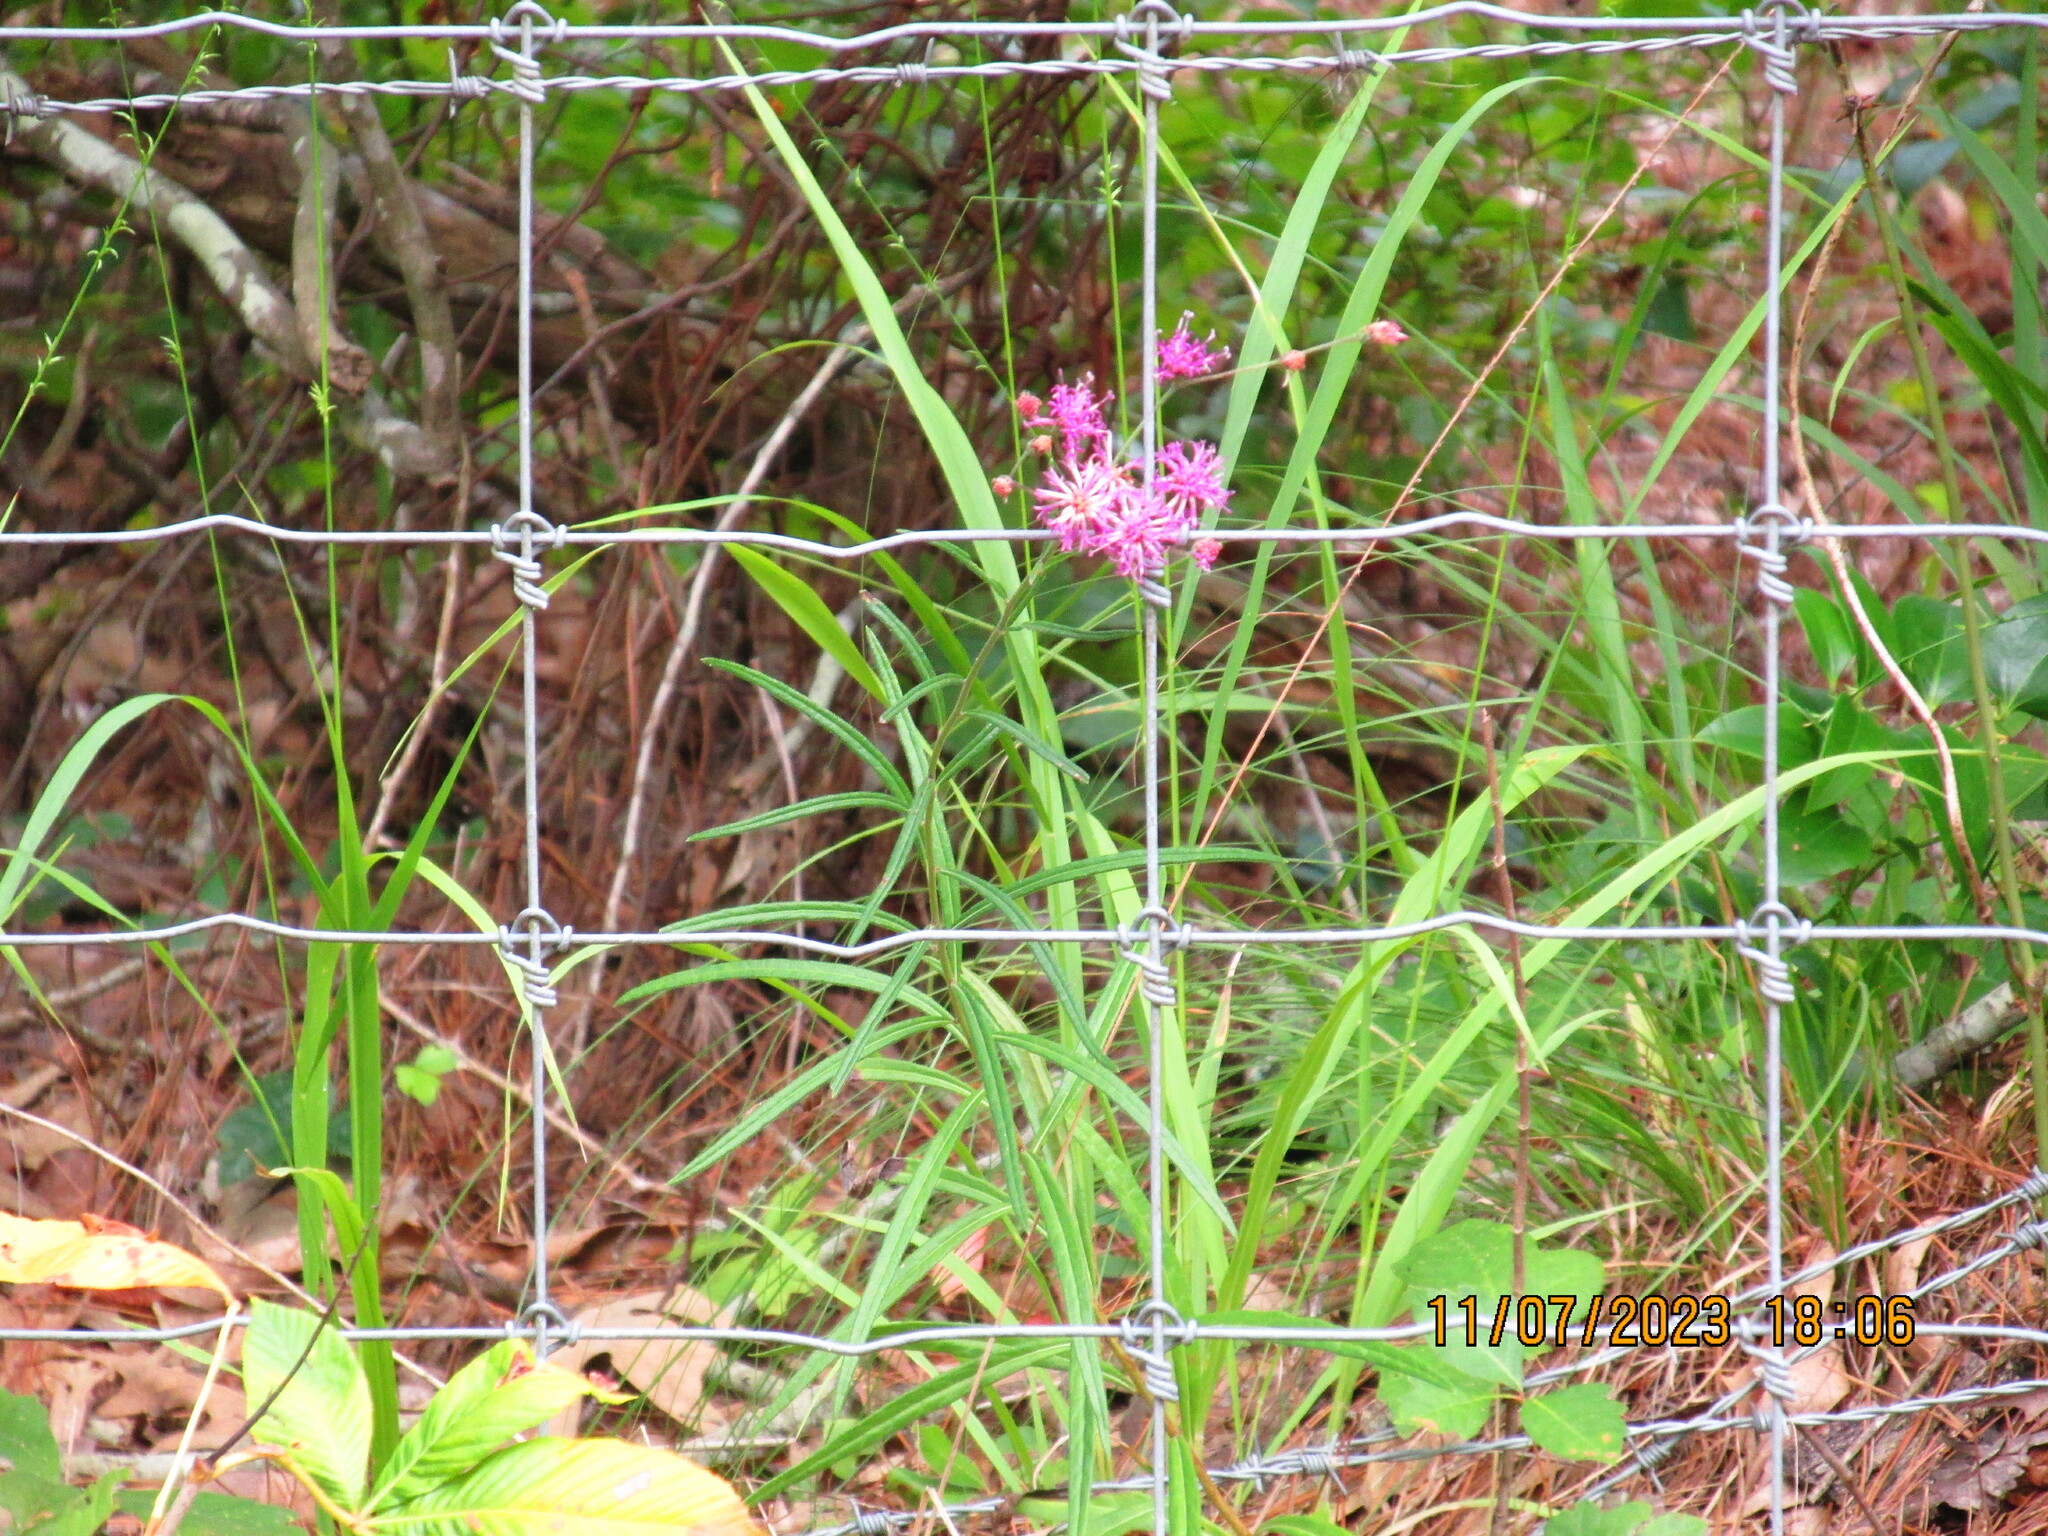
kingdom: Plantae
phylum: Tracheophyta
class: Magnoliopsida
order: Asterales
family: Asteraceae
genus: Vernonia
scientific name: Vernonia texana
